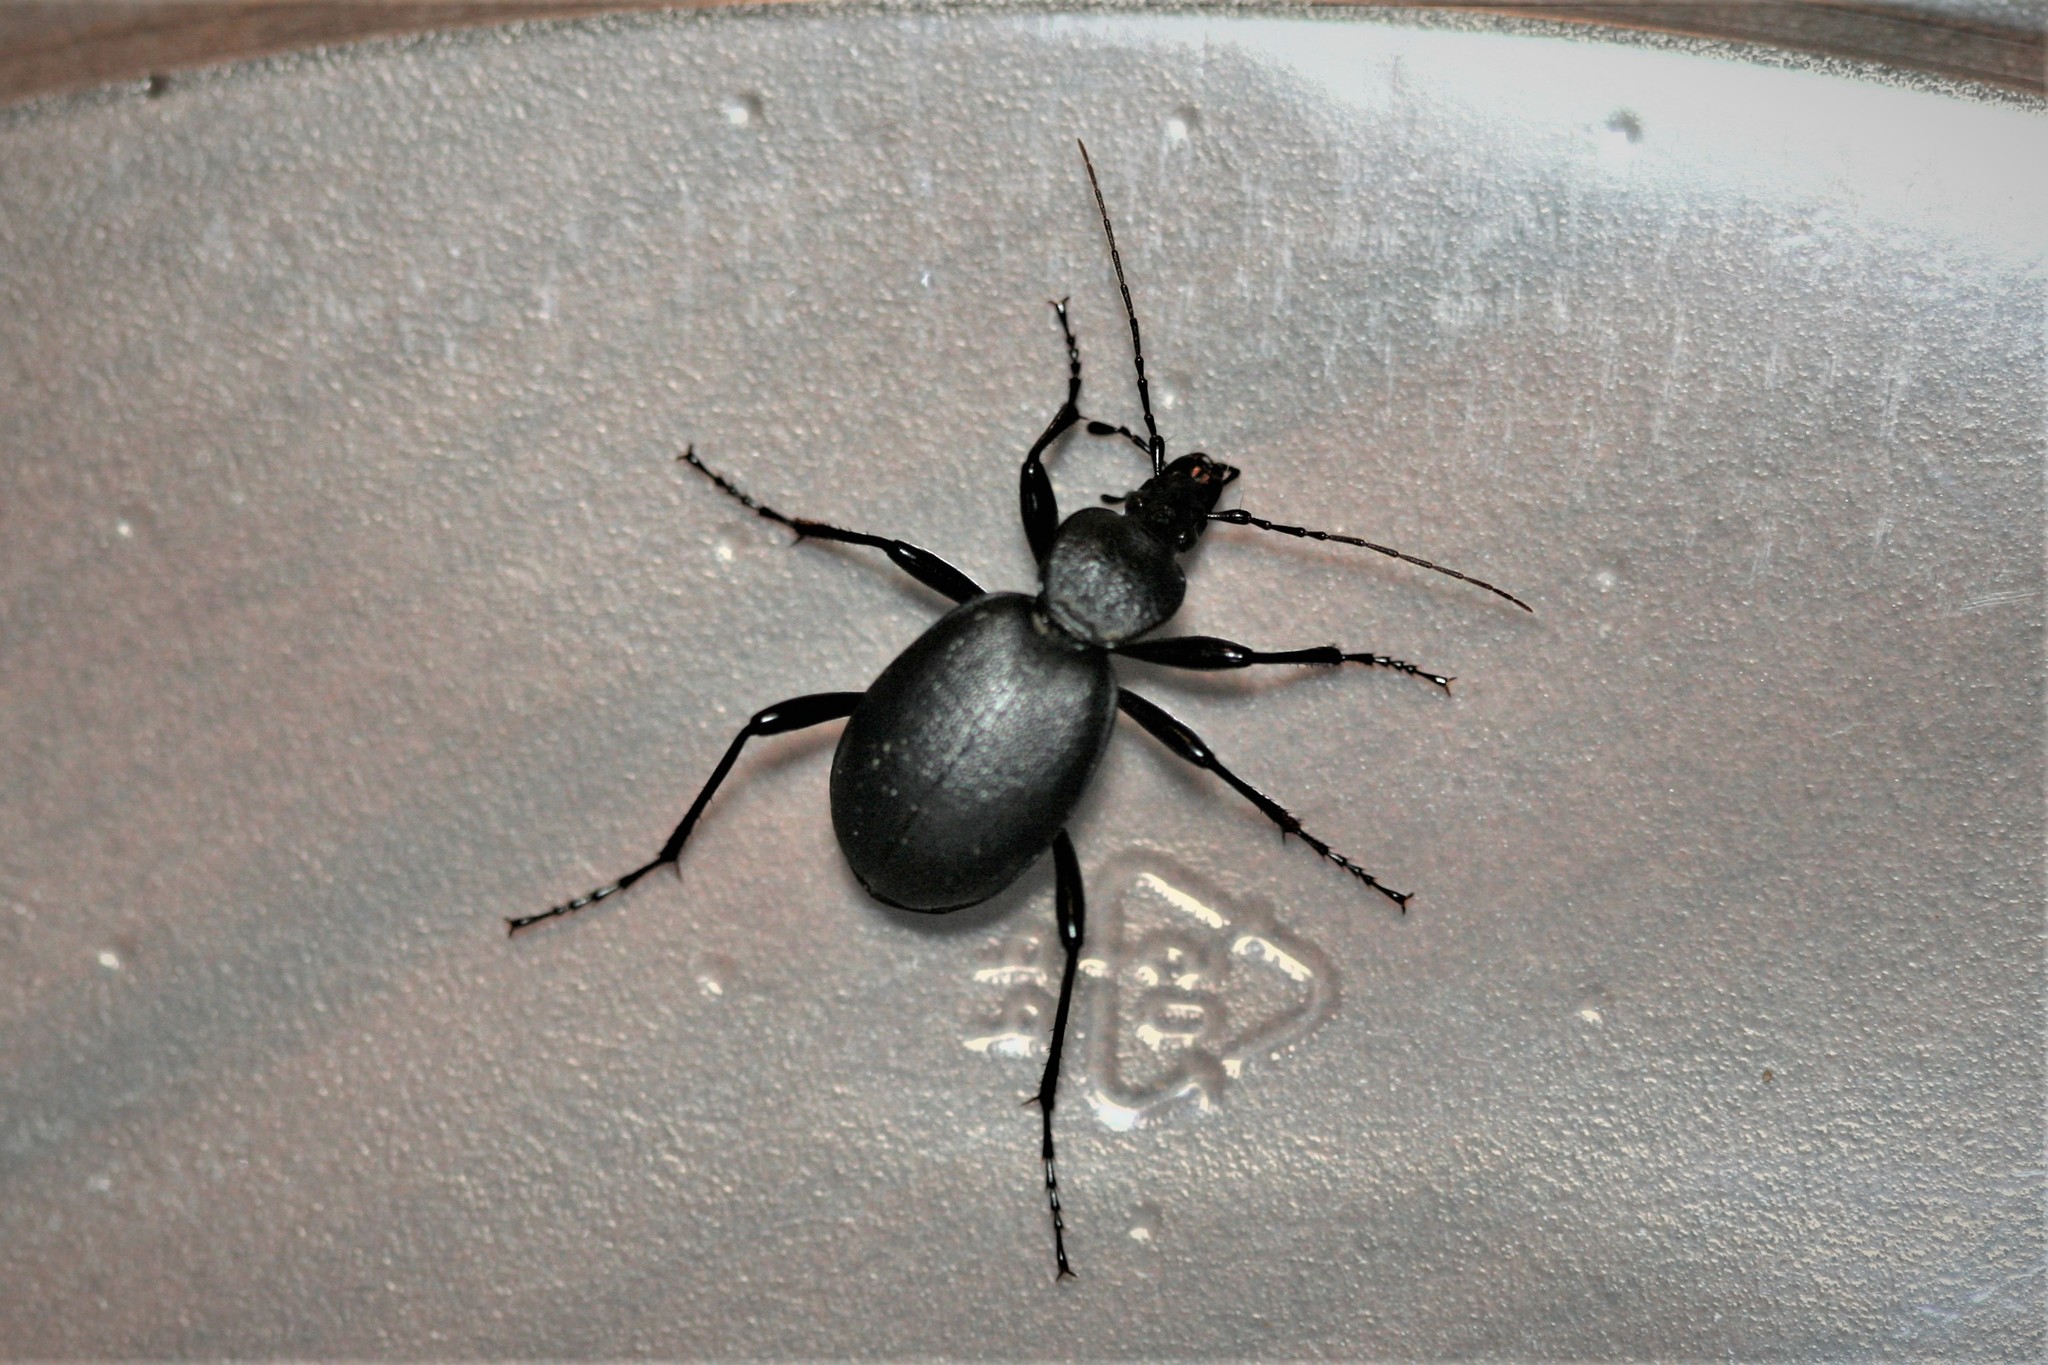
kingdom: Animalia
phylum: Arthropoda
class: Insecta
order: Coleoptera
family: Carabidae
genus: Cychrus
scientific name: Cychrus caraboides
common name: Snail hunter
